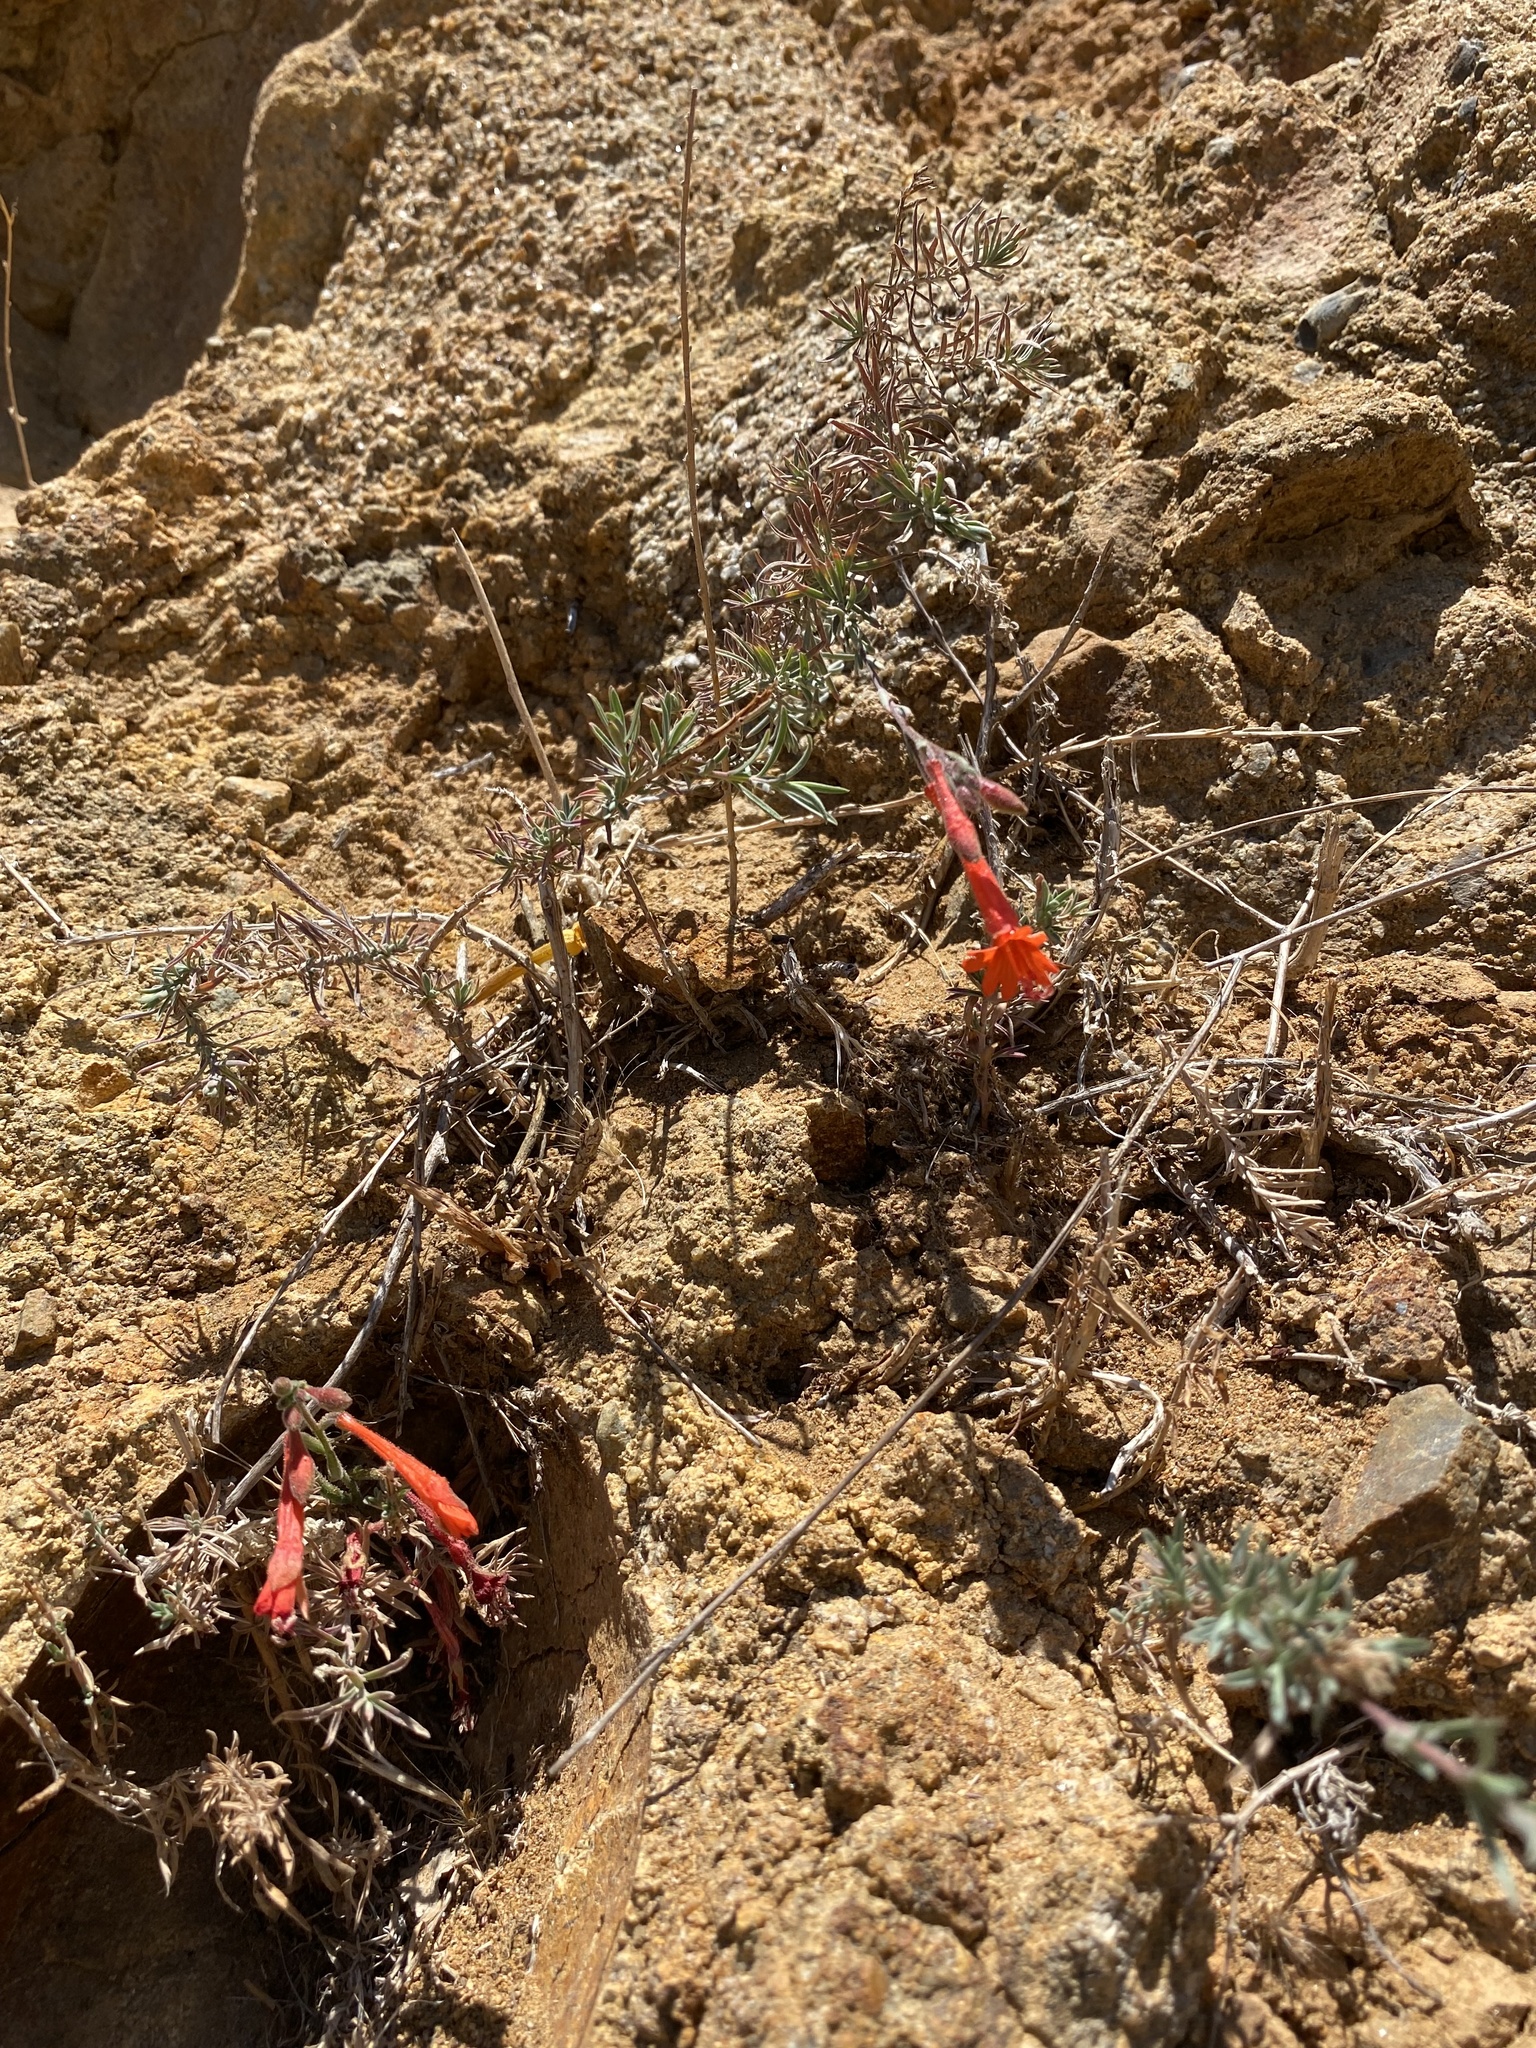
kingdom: Plantae
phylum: Tracheophyta
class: Magnoliopsida
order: Myrtales
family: Onagraceae
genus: Epilobium
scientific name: Epilobium canum
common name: California-fuchsia
